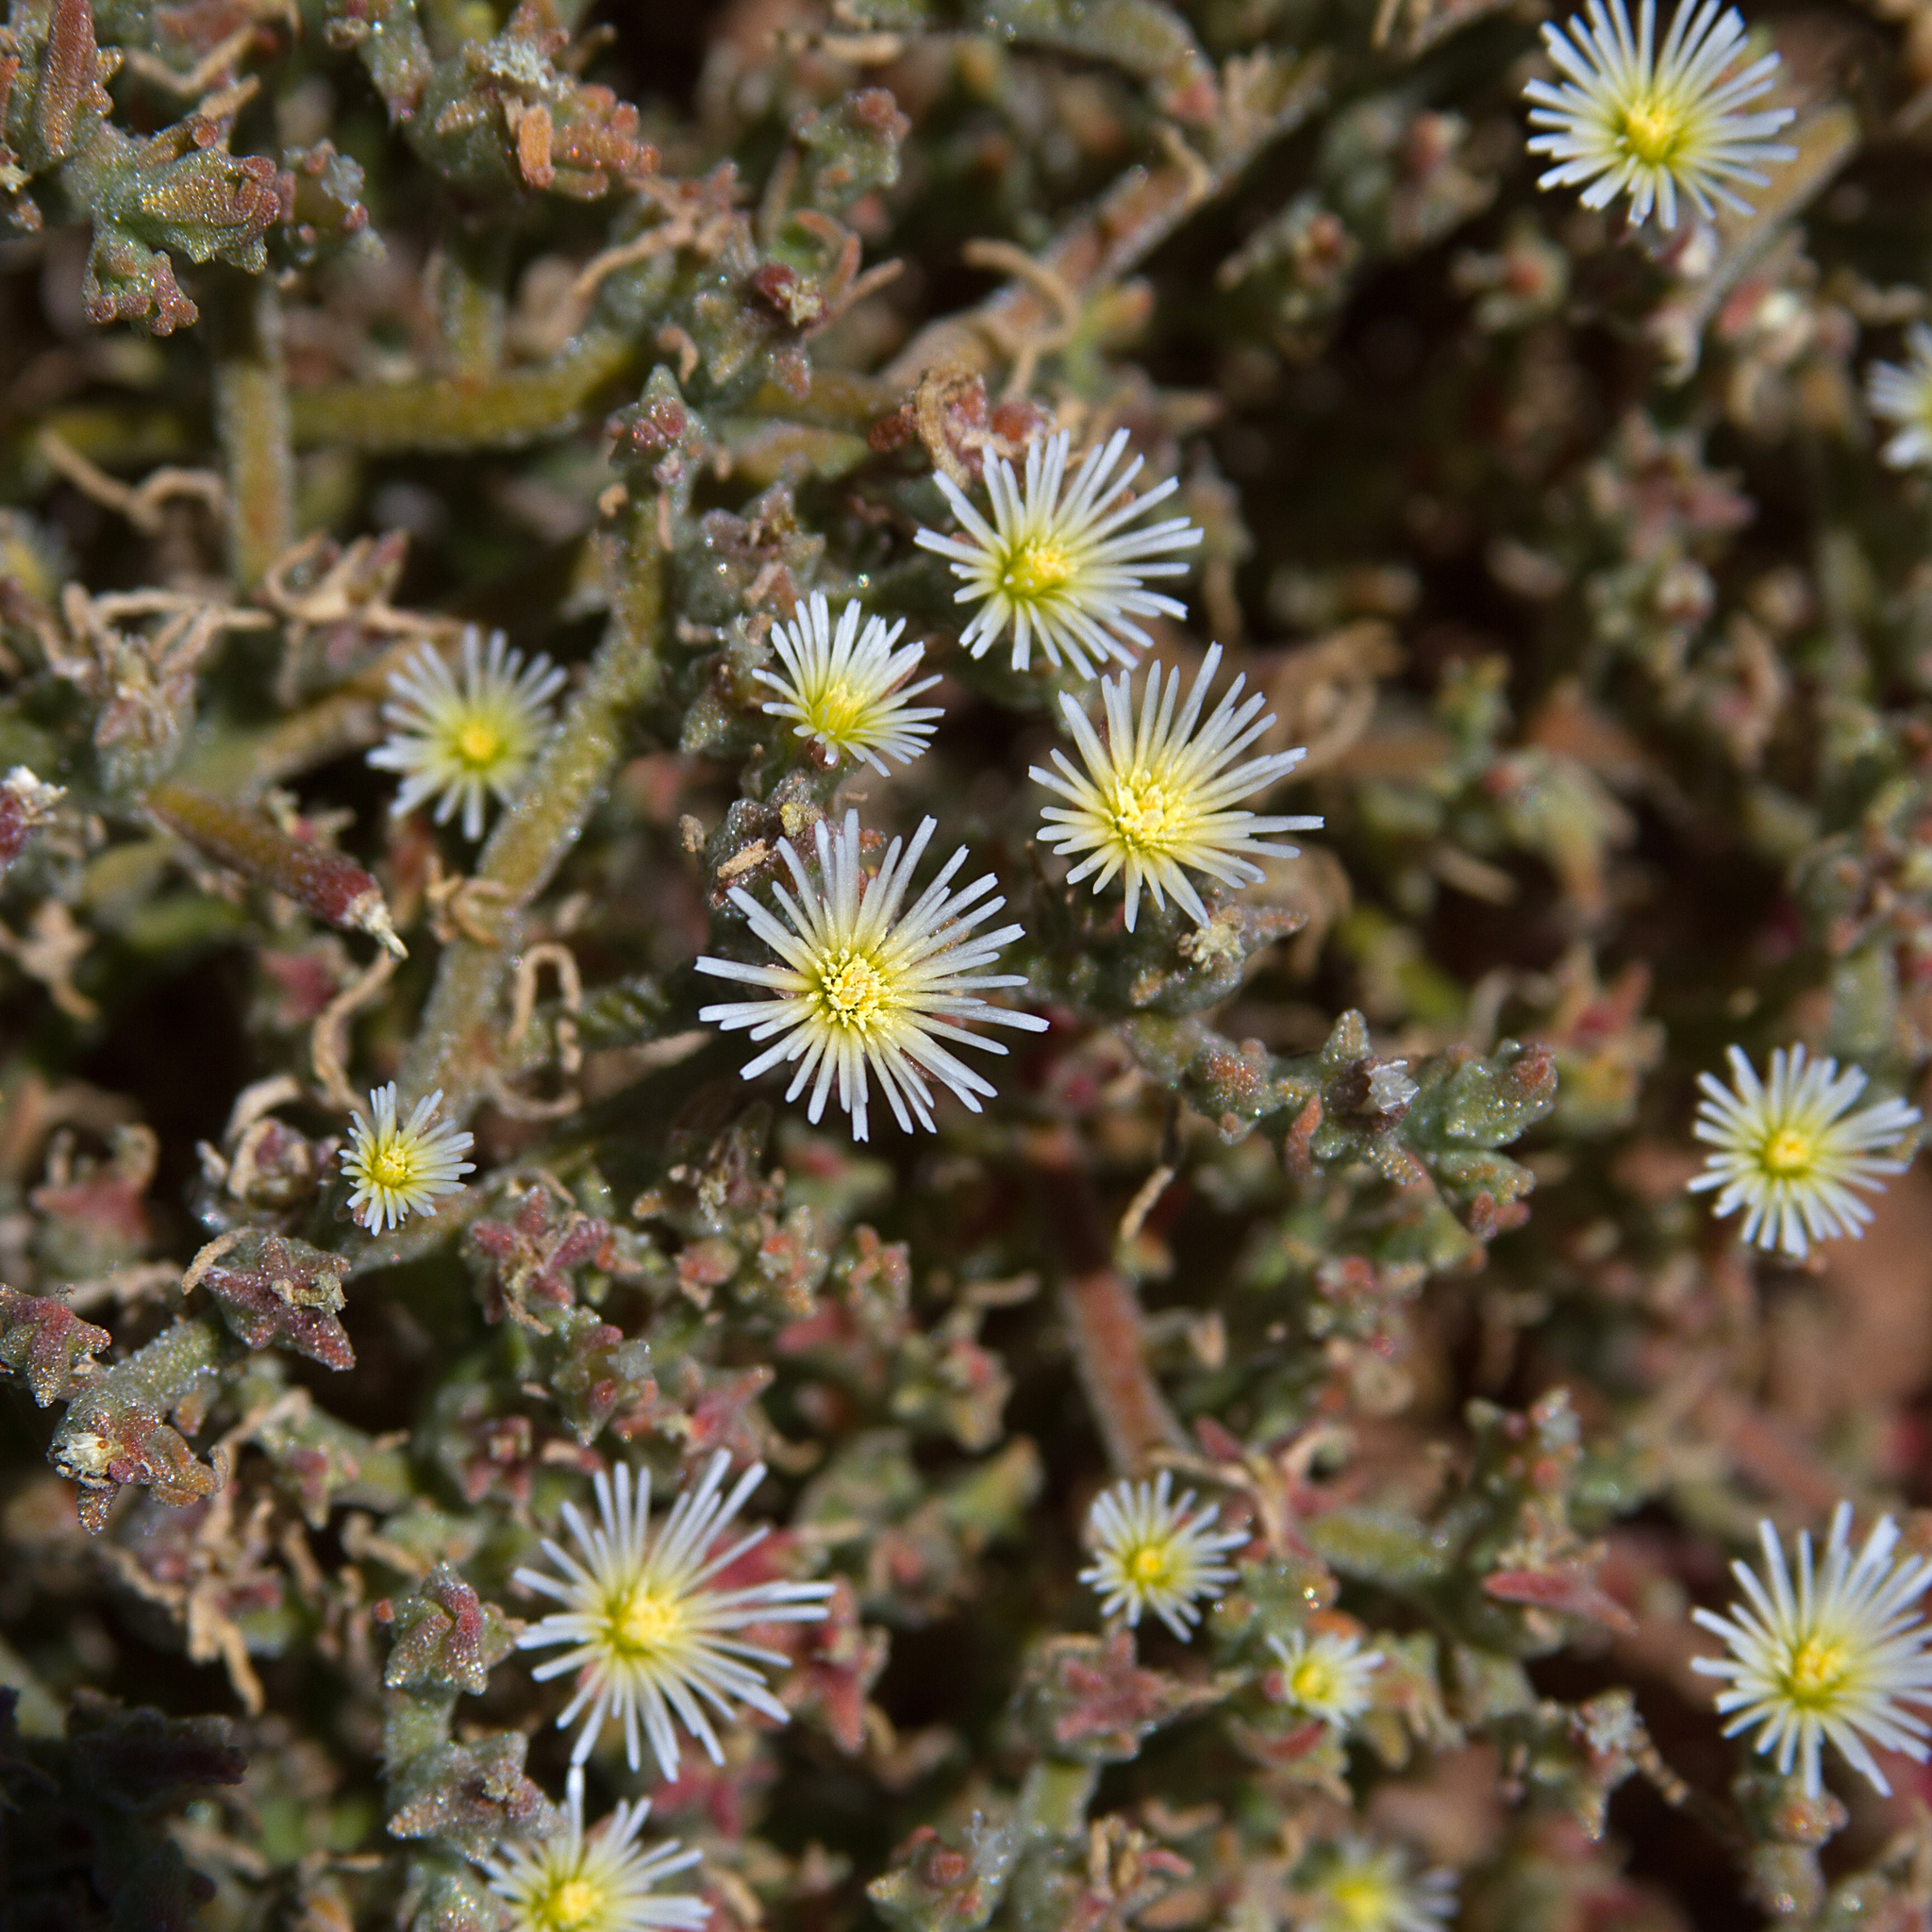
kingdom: Plantae
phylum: Tracheophyta
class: Magnoliopsida
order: Caryophyllales
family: Aizoaceae
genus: Mesembryanthemum
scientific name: Mesembryanthemum nodiflorum
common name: Slenderleaf iceplant
